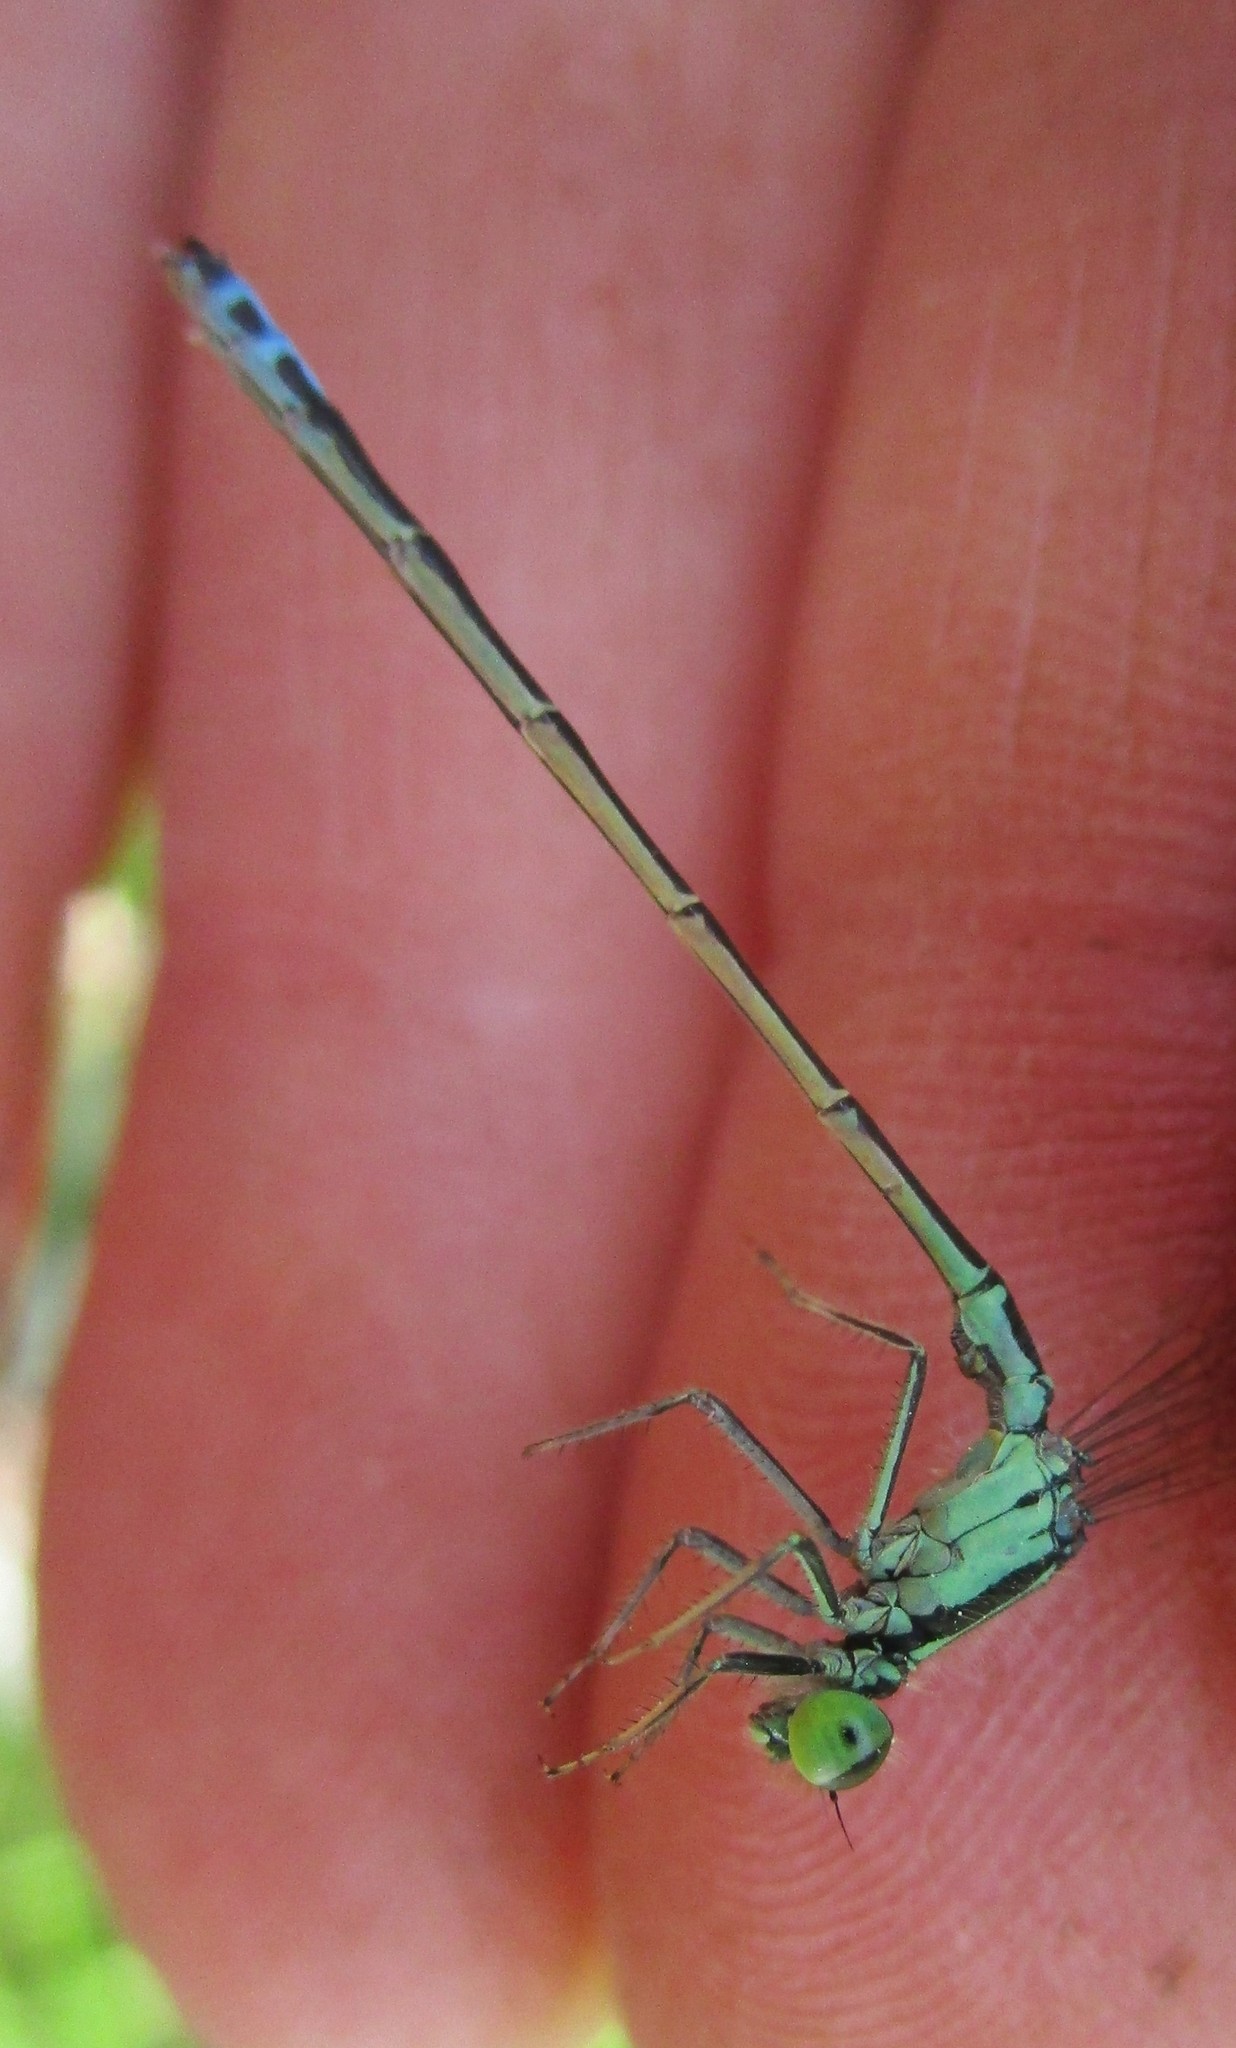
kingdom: Animalia
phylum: Arthropoda
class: Insecta
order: Odonata
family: Coenagrionidae
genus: Ischnura
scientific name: Ischnura verticalis
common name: Eastern forktail
